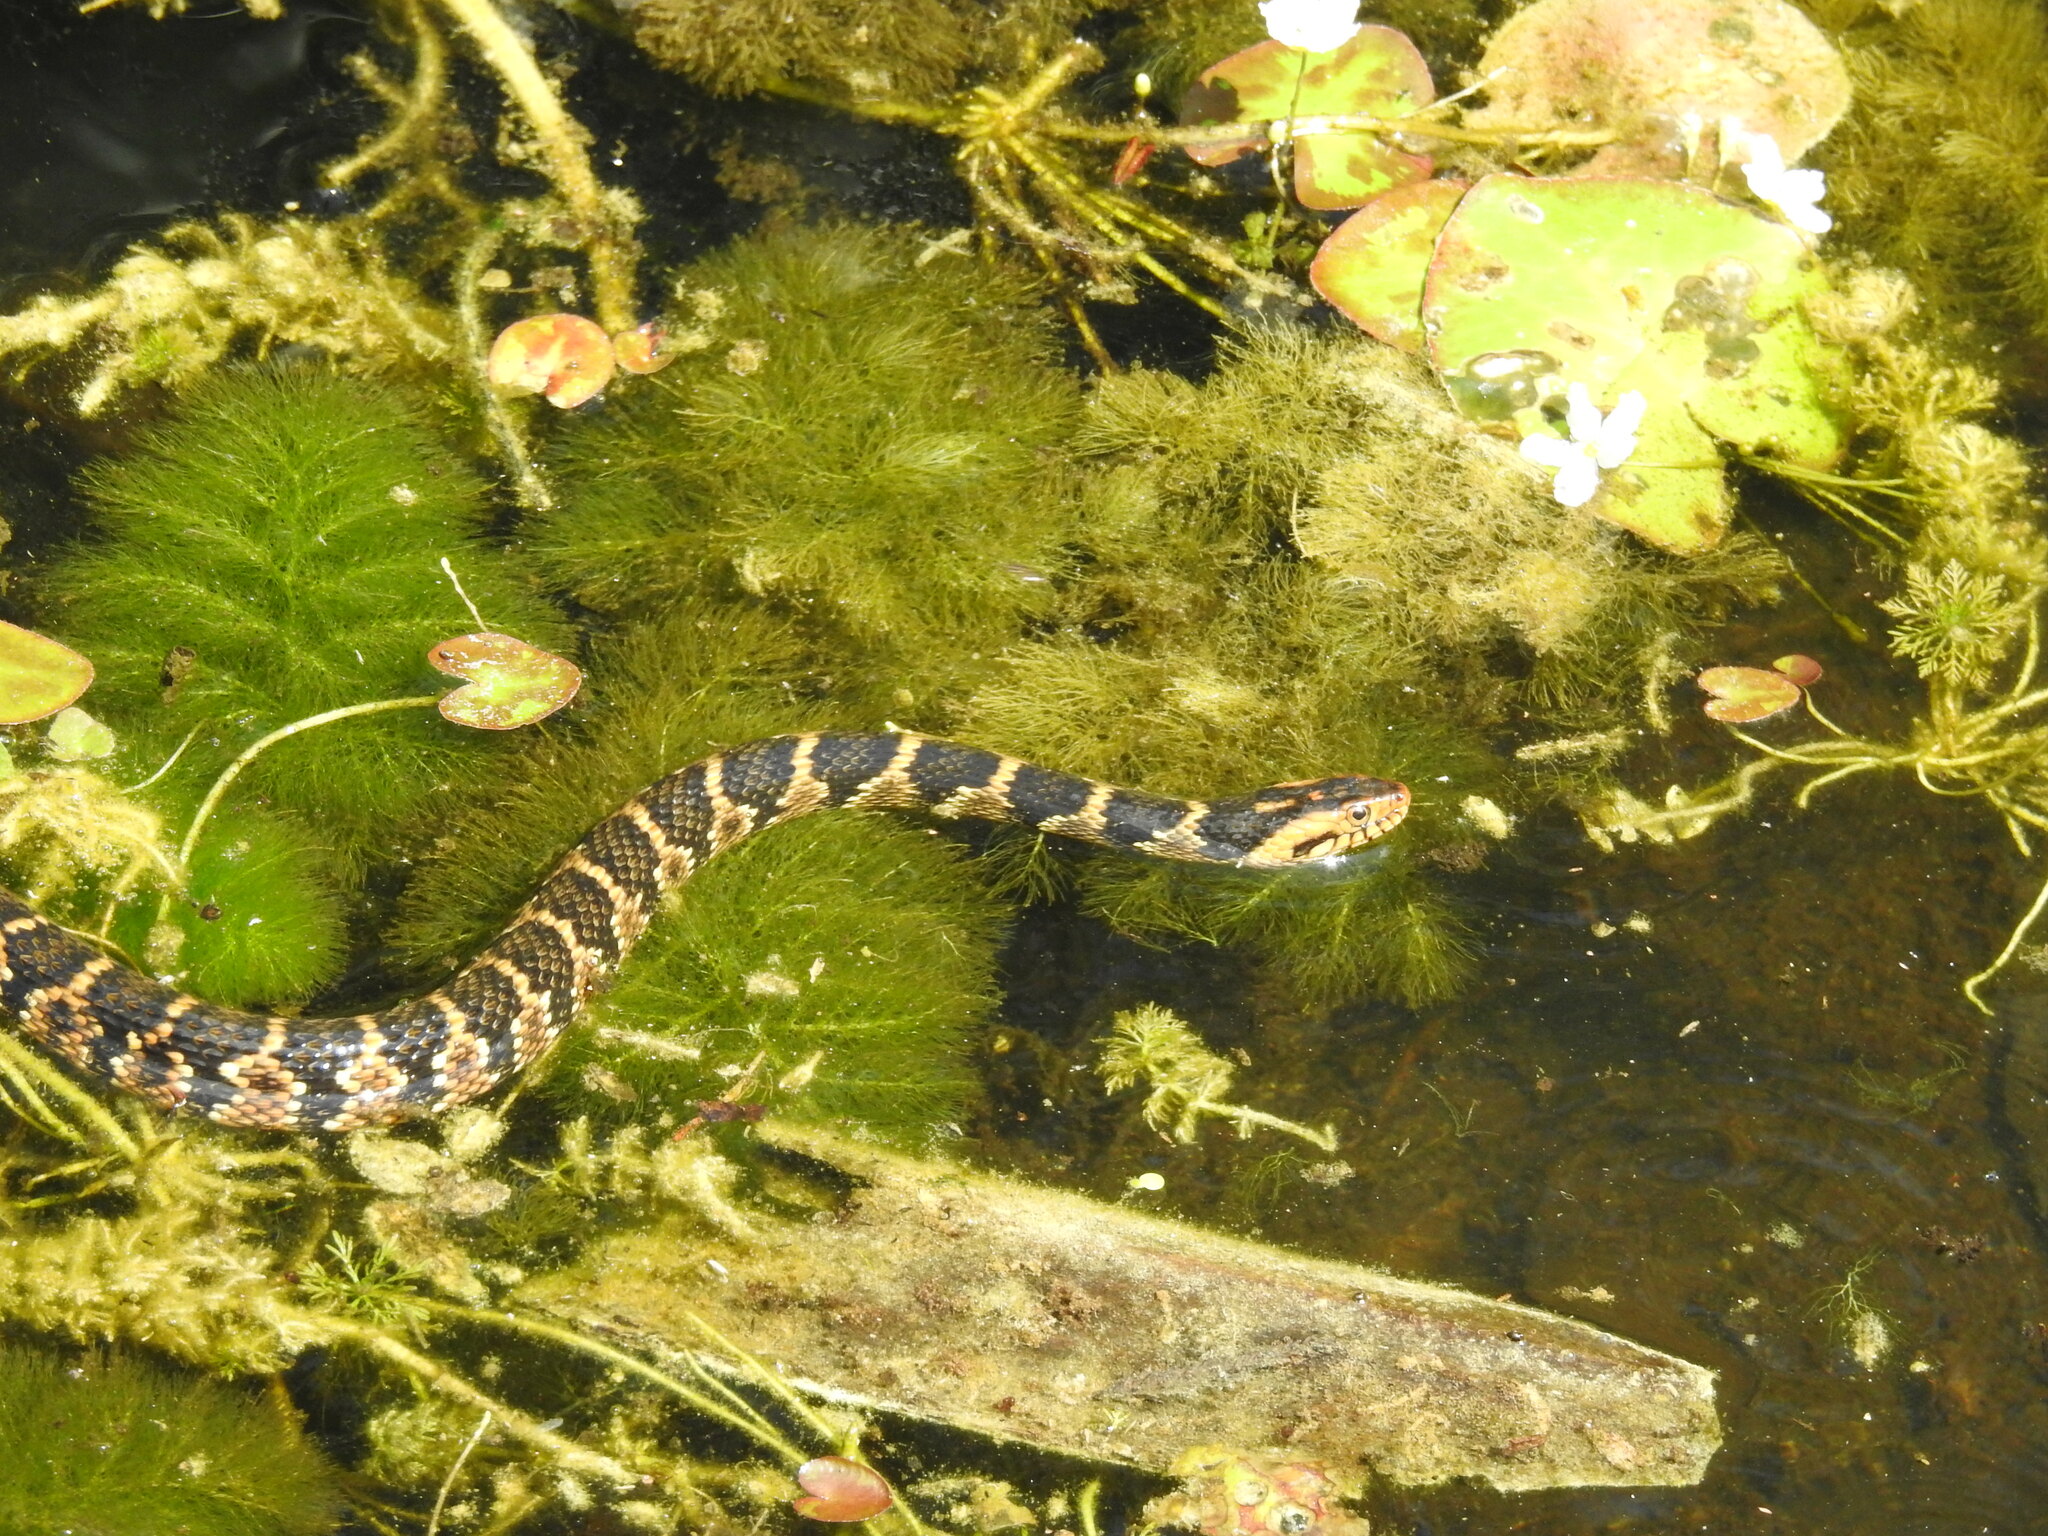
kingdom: Animalia
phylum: Chordata
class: Squamata
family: Colubridae
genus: Nerodia
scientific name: Nerodia fasciata
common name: Southern water snake
